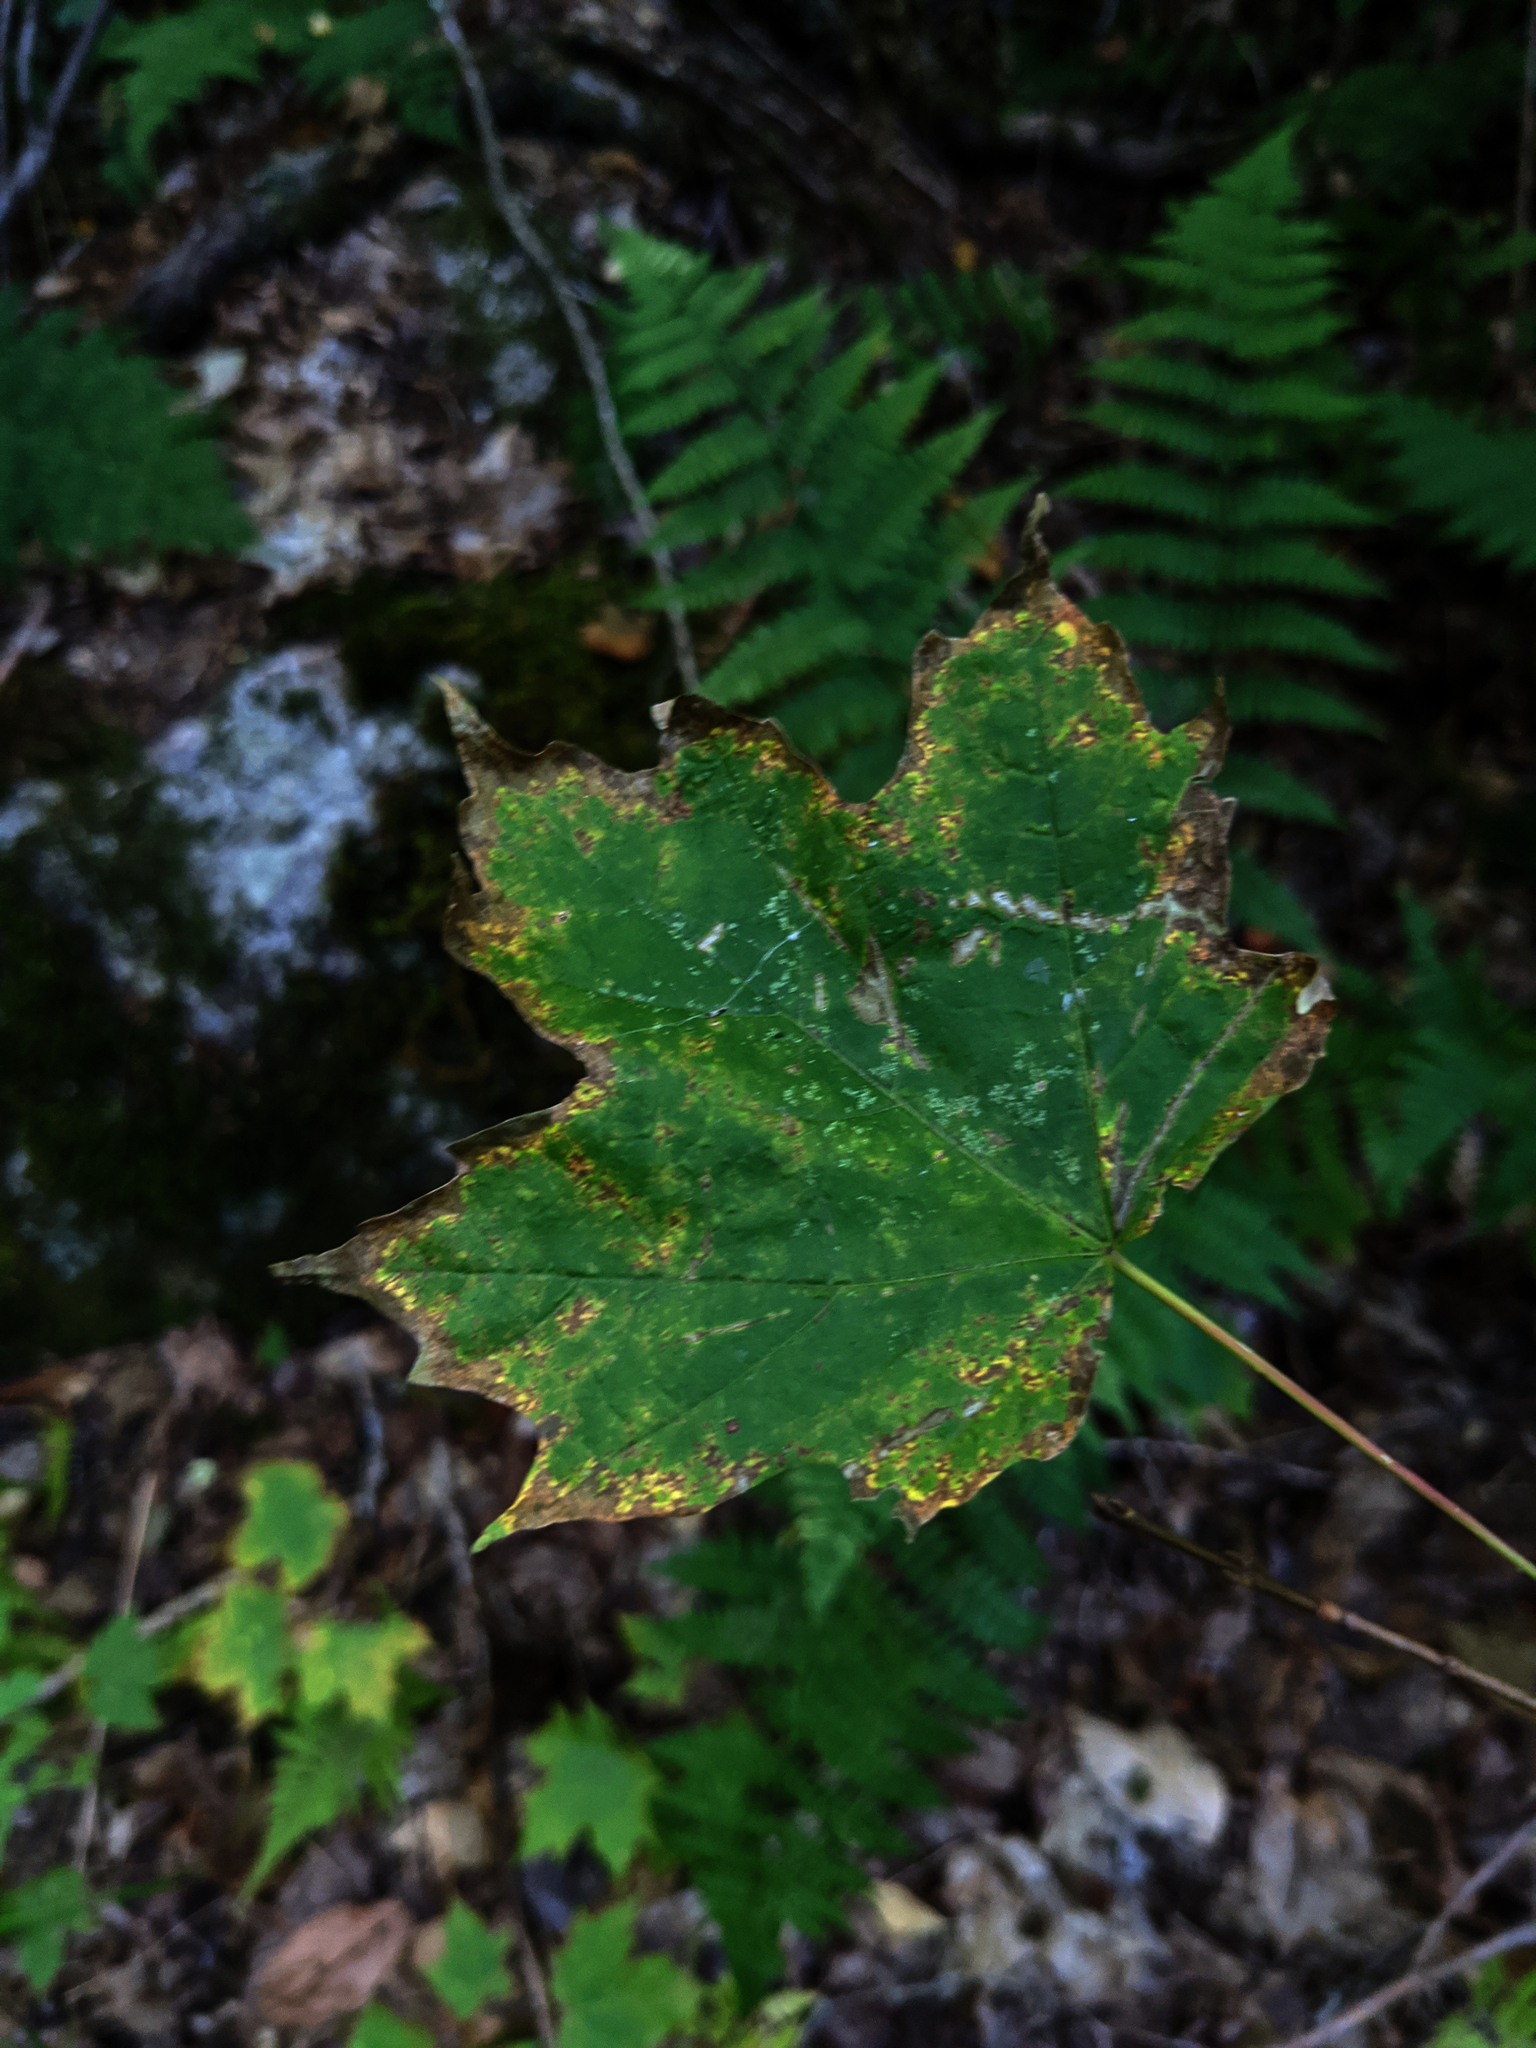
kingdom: Plantae
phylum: Tracheophyta
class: Magnoliopsida
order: Sapindales
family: Sapindaceae
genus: Acer
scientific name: Acer saccharum
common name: Sugar maple
